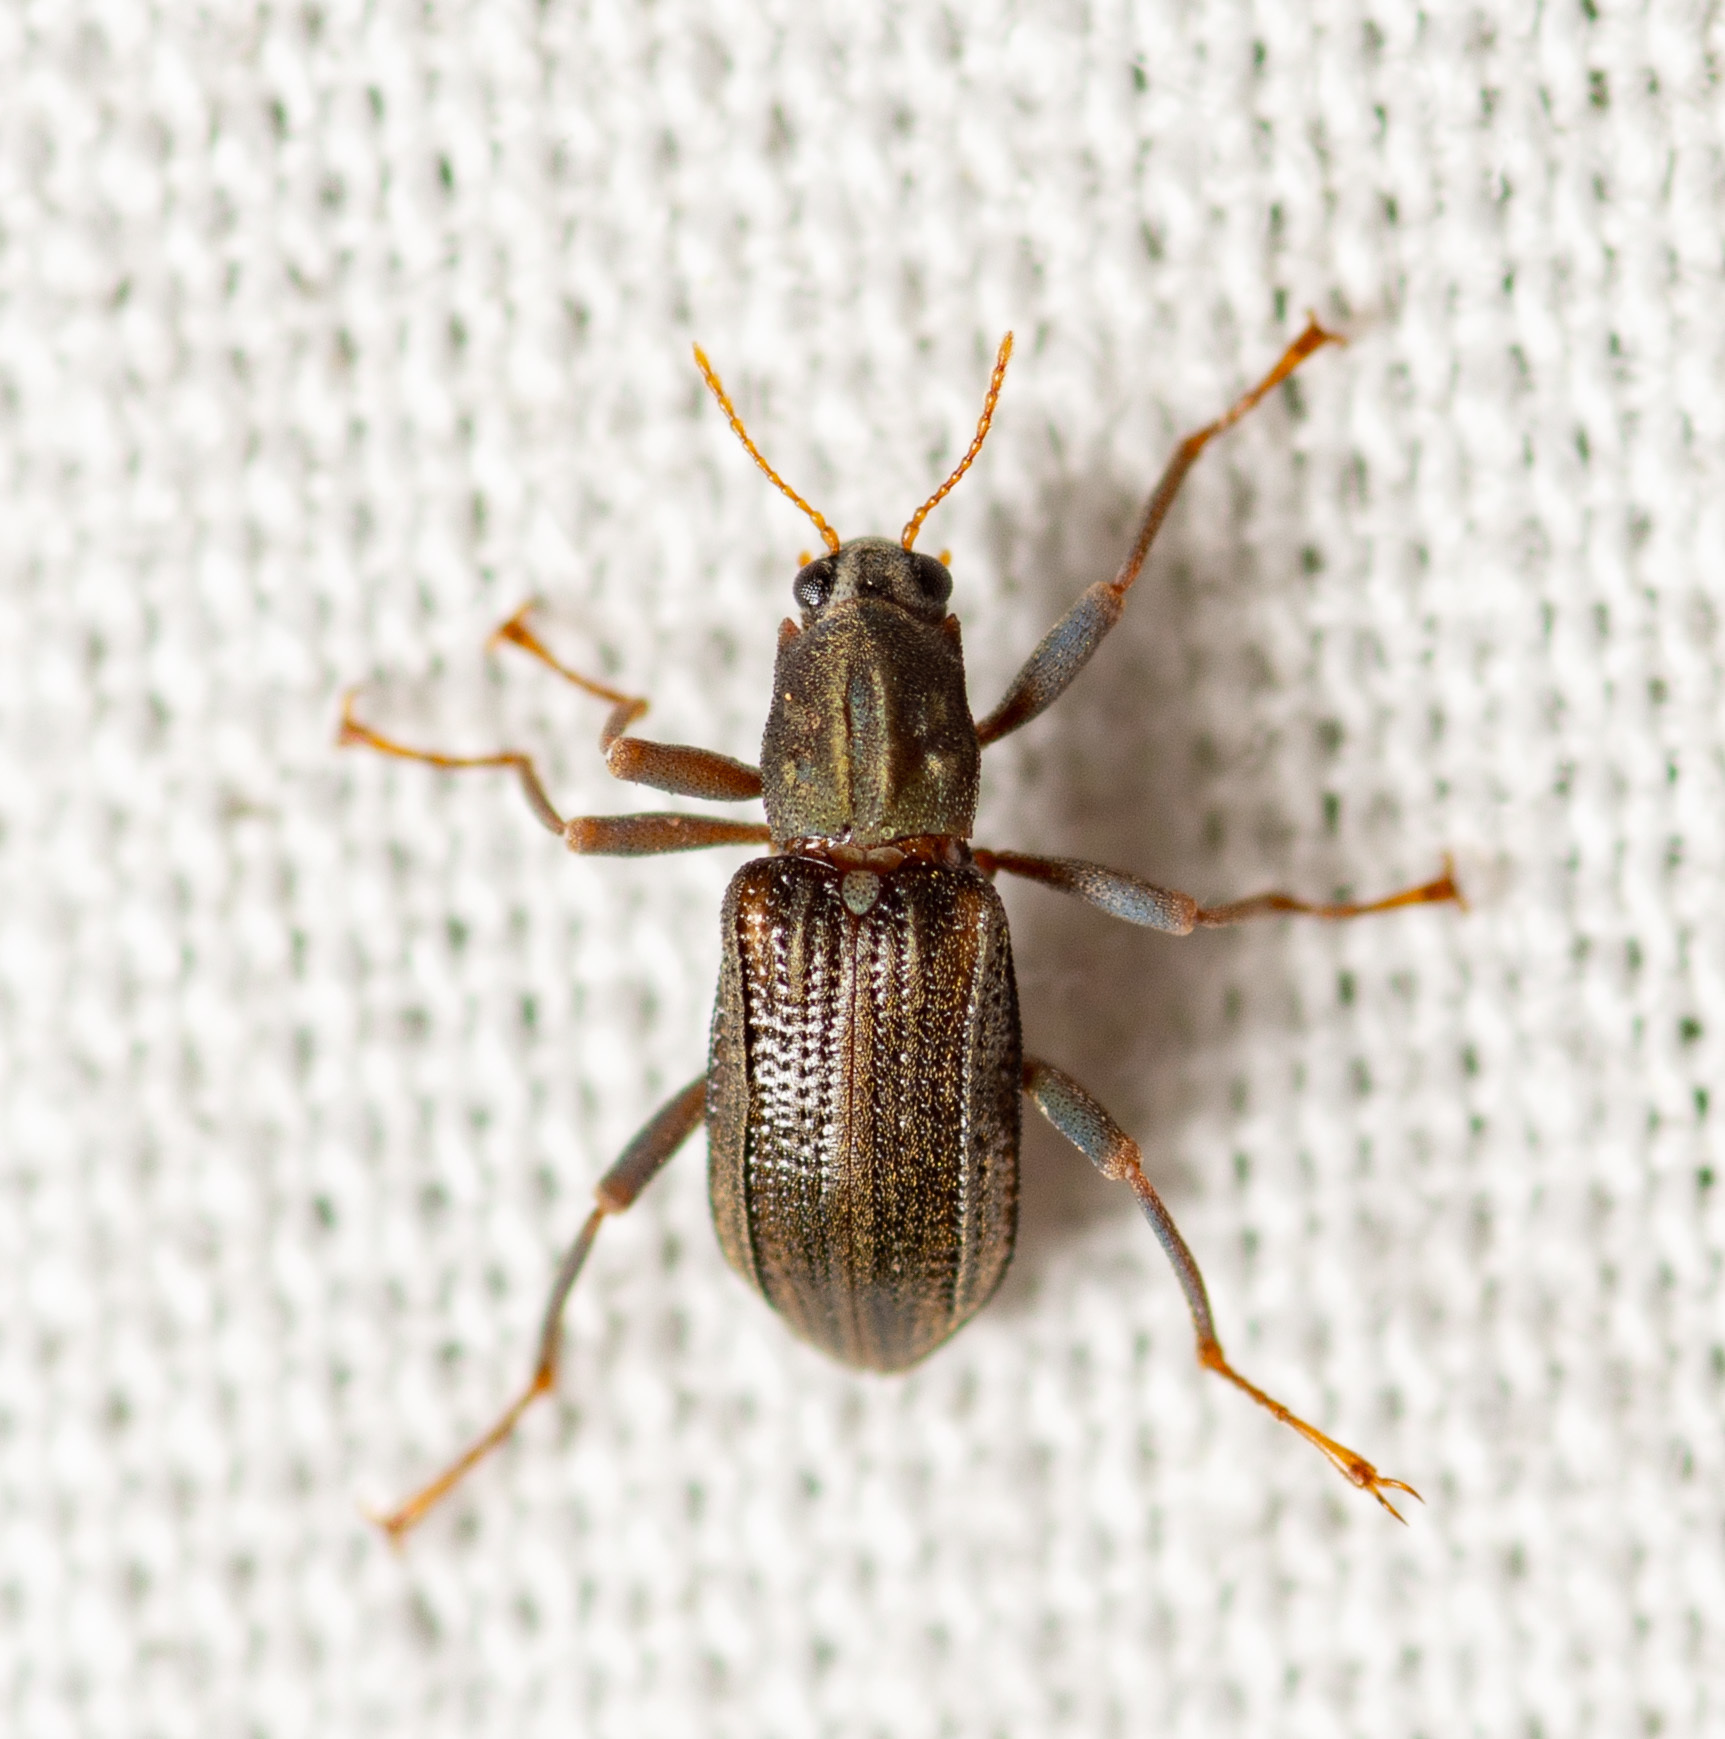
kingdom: Animalia
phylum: Arthropoda
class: Insecta
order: Coleoptera
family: Elmidae
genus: Stenelmis
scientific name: Stenelmis
